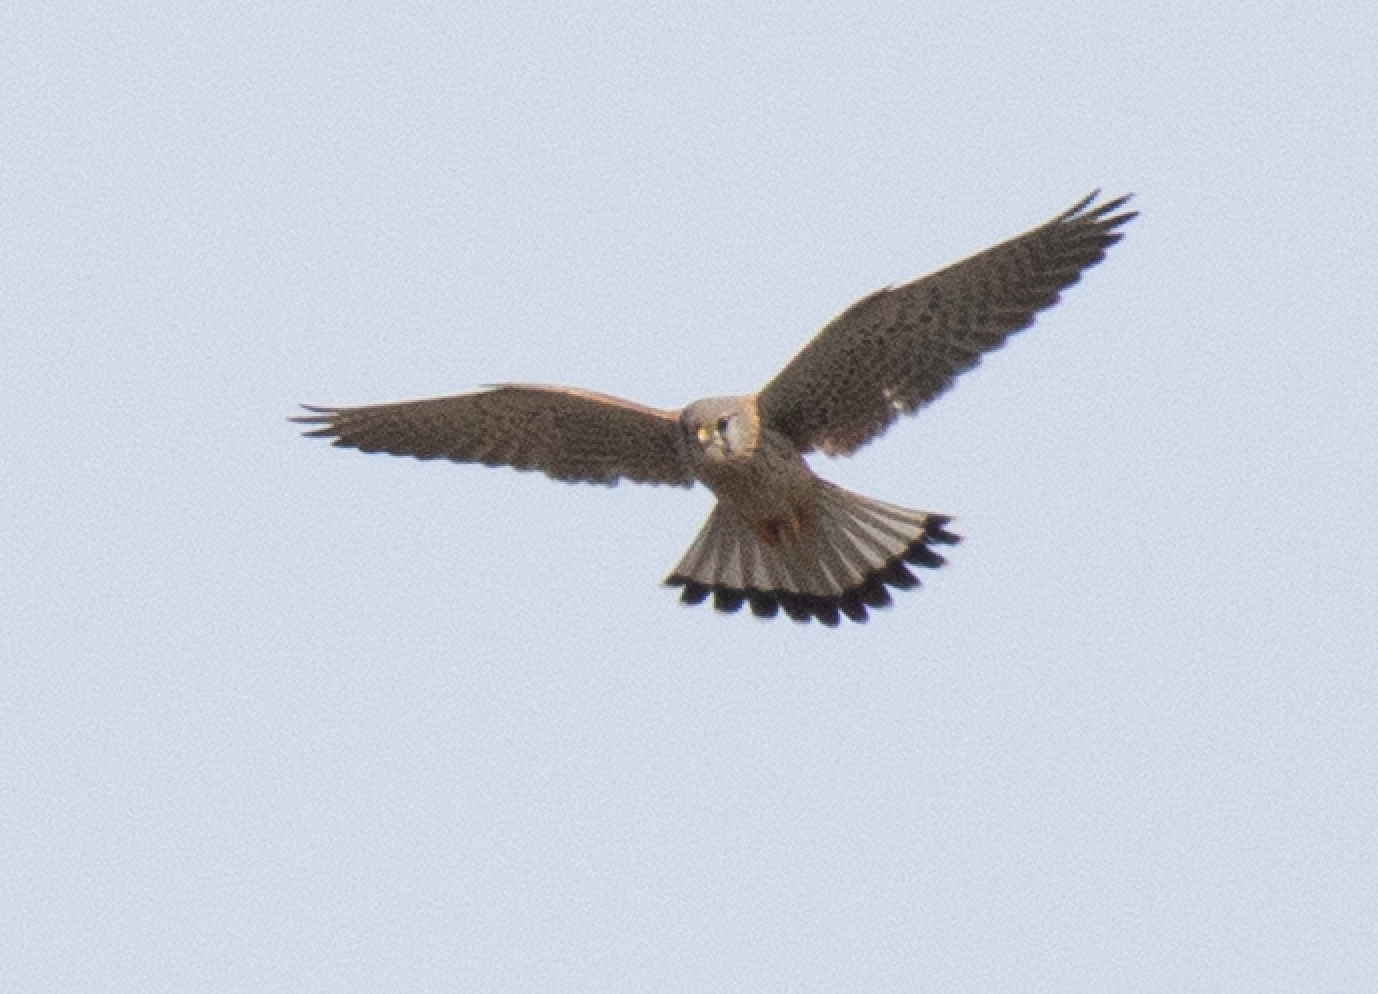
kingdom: Animalia
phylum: Chordata
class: Aves
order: Falconiformes
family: Falconidae
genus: Falco
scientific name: Falco tinnunculus
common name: Common kestrel
